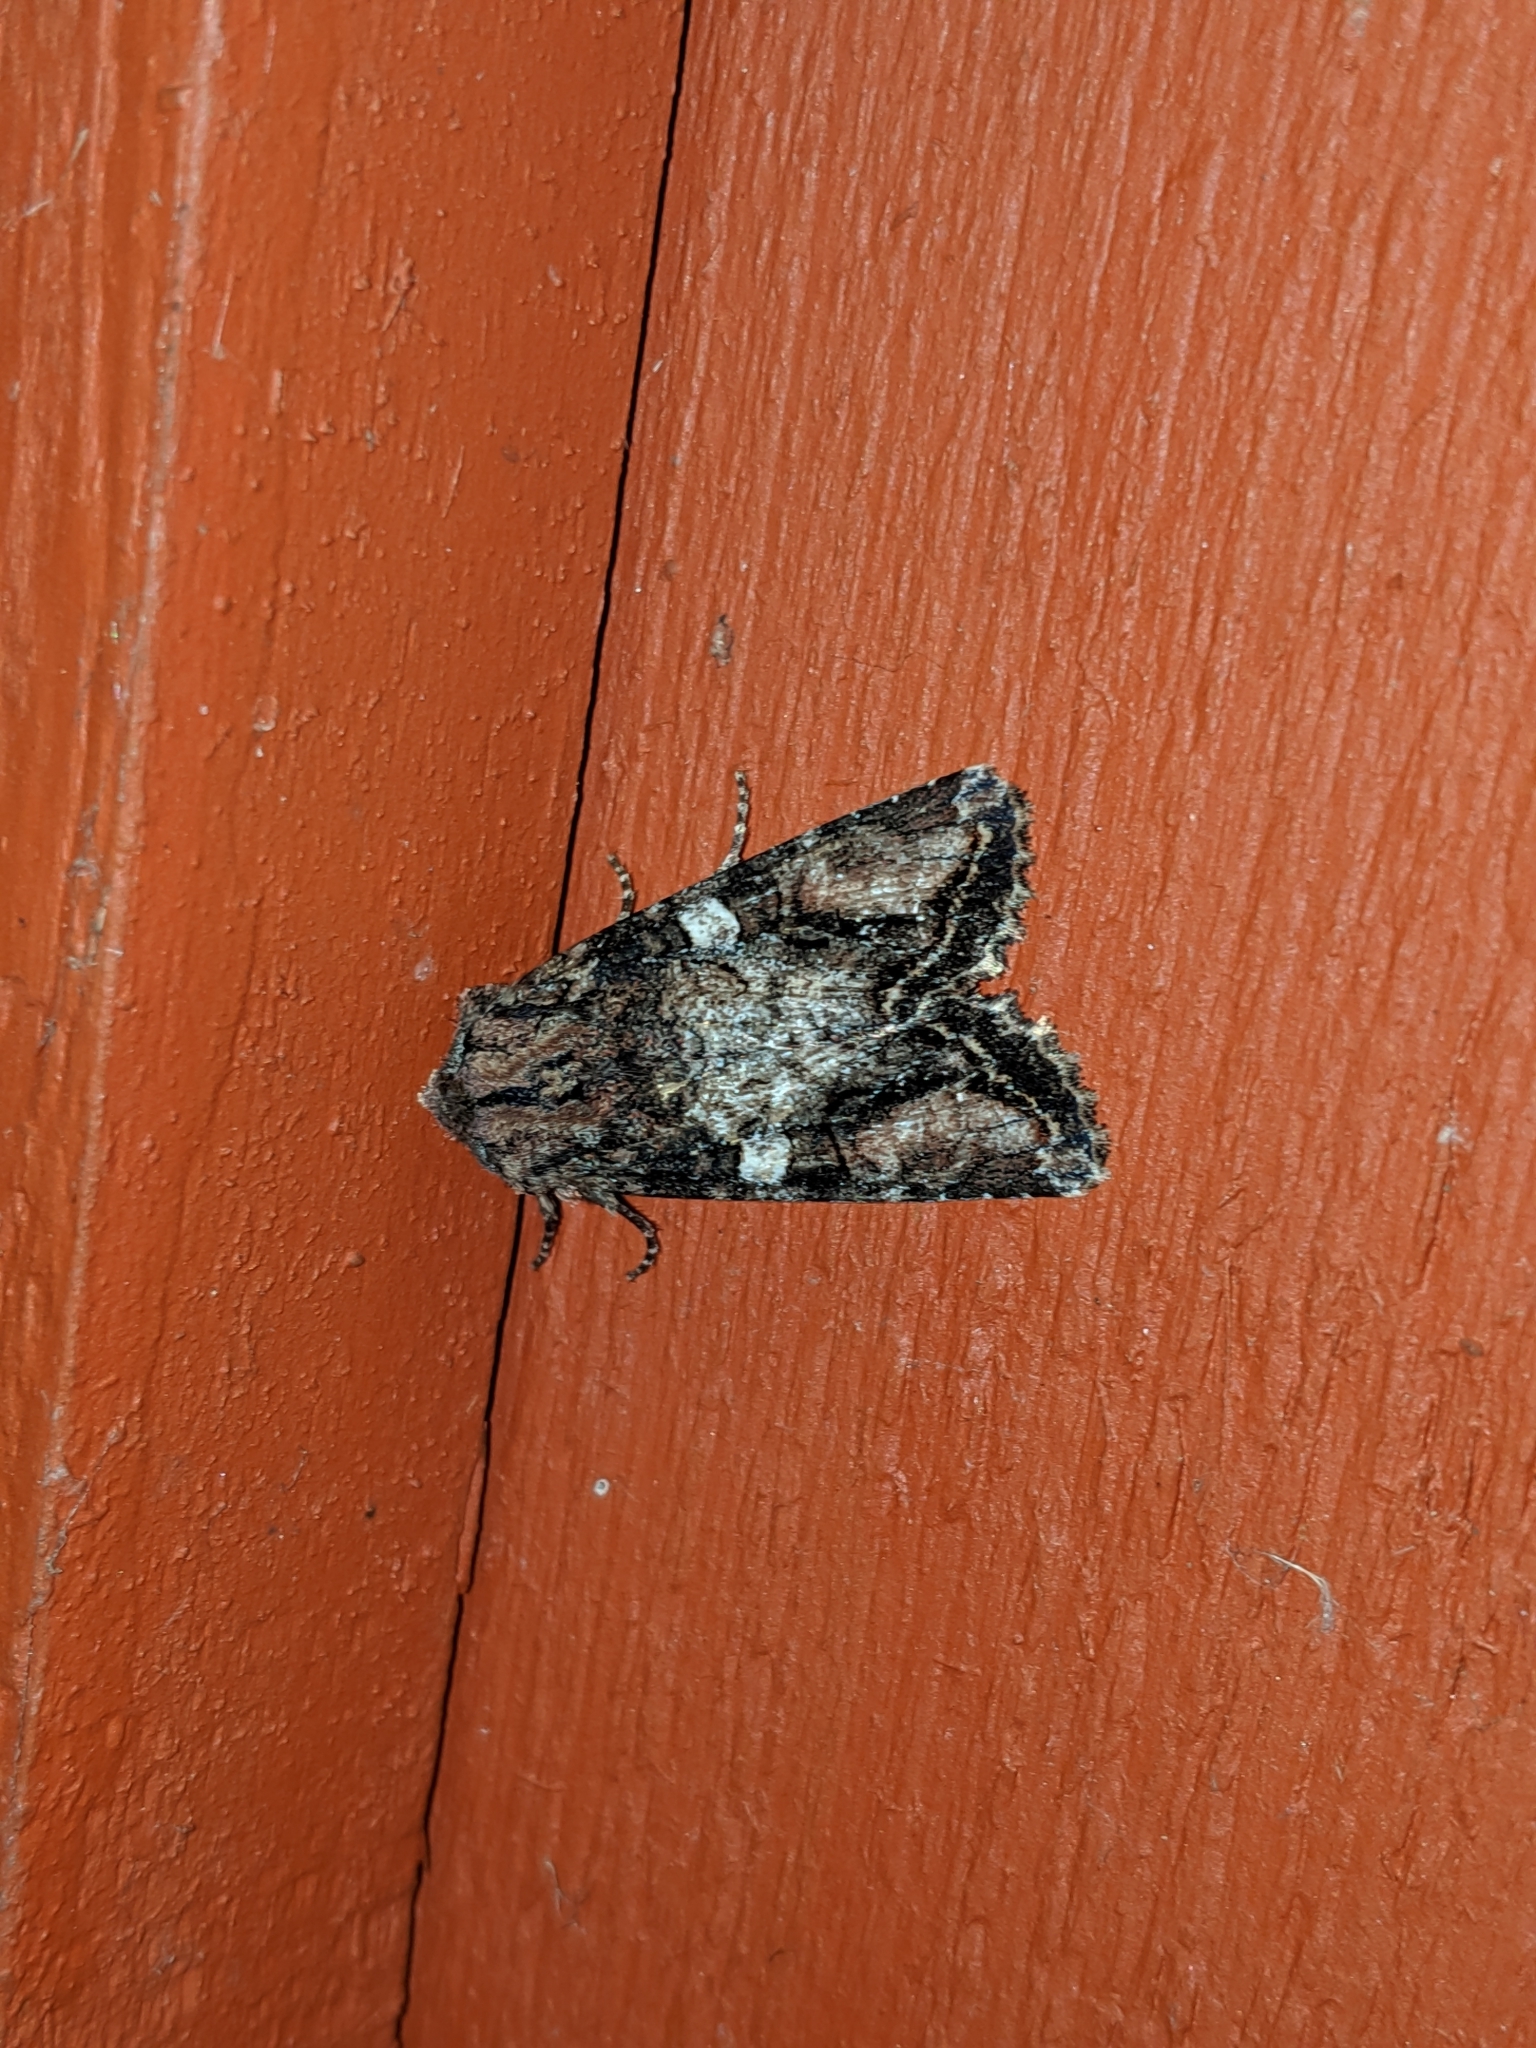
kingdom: Animalia
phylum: Arthropoda
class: Insecta
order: Lepidoptera
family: Noctuidae
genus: Egira
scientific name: Egira perlubens
